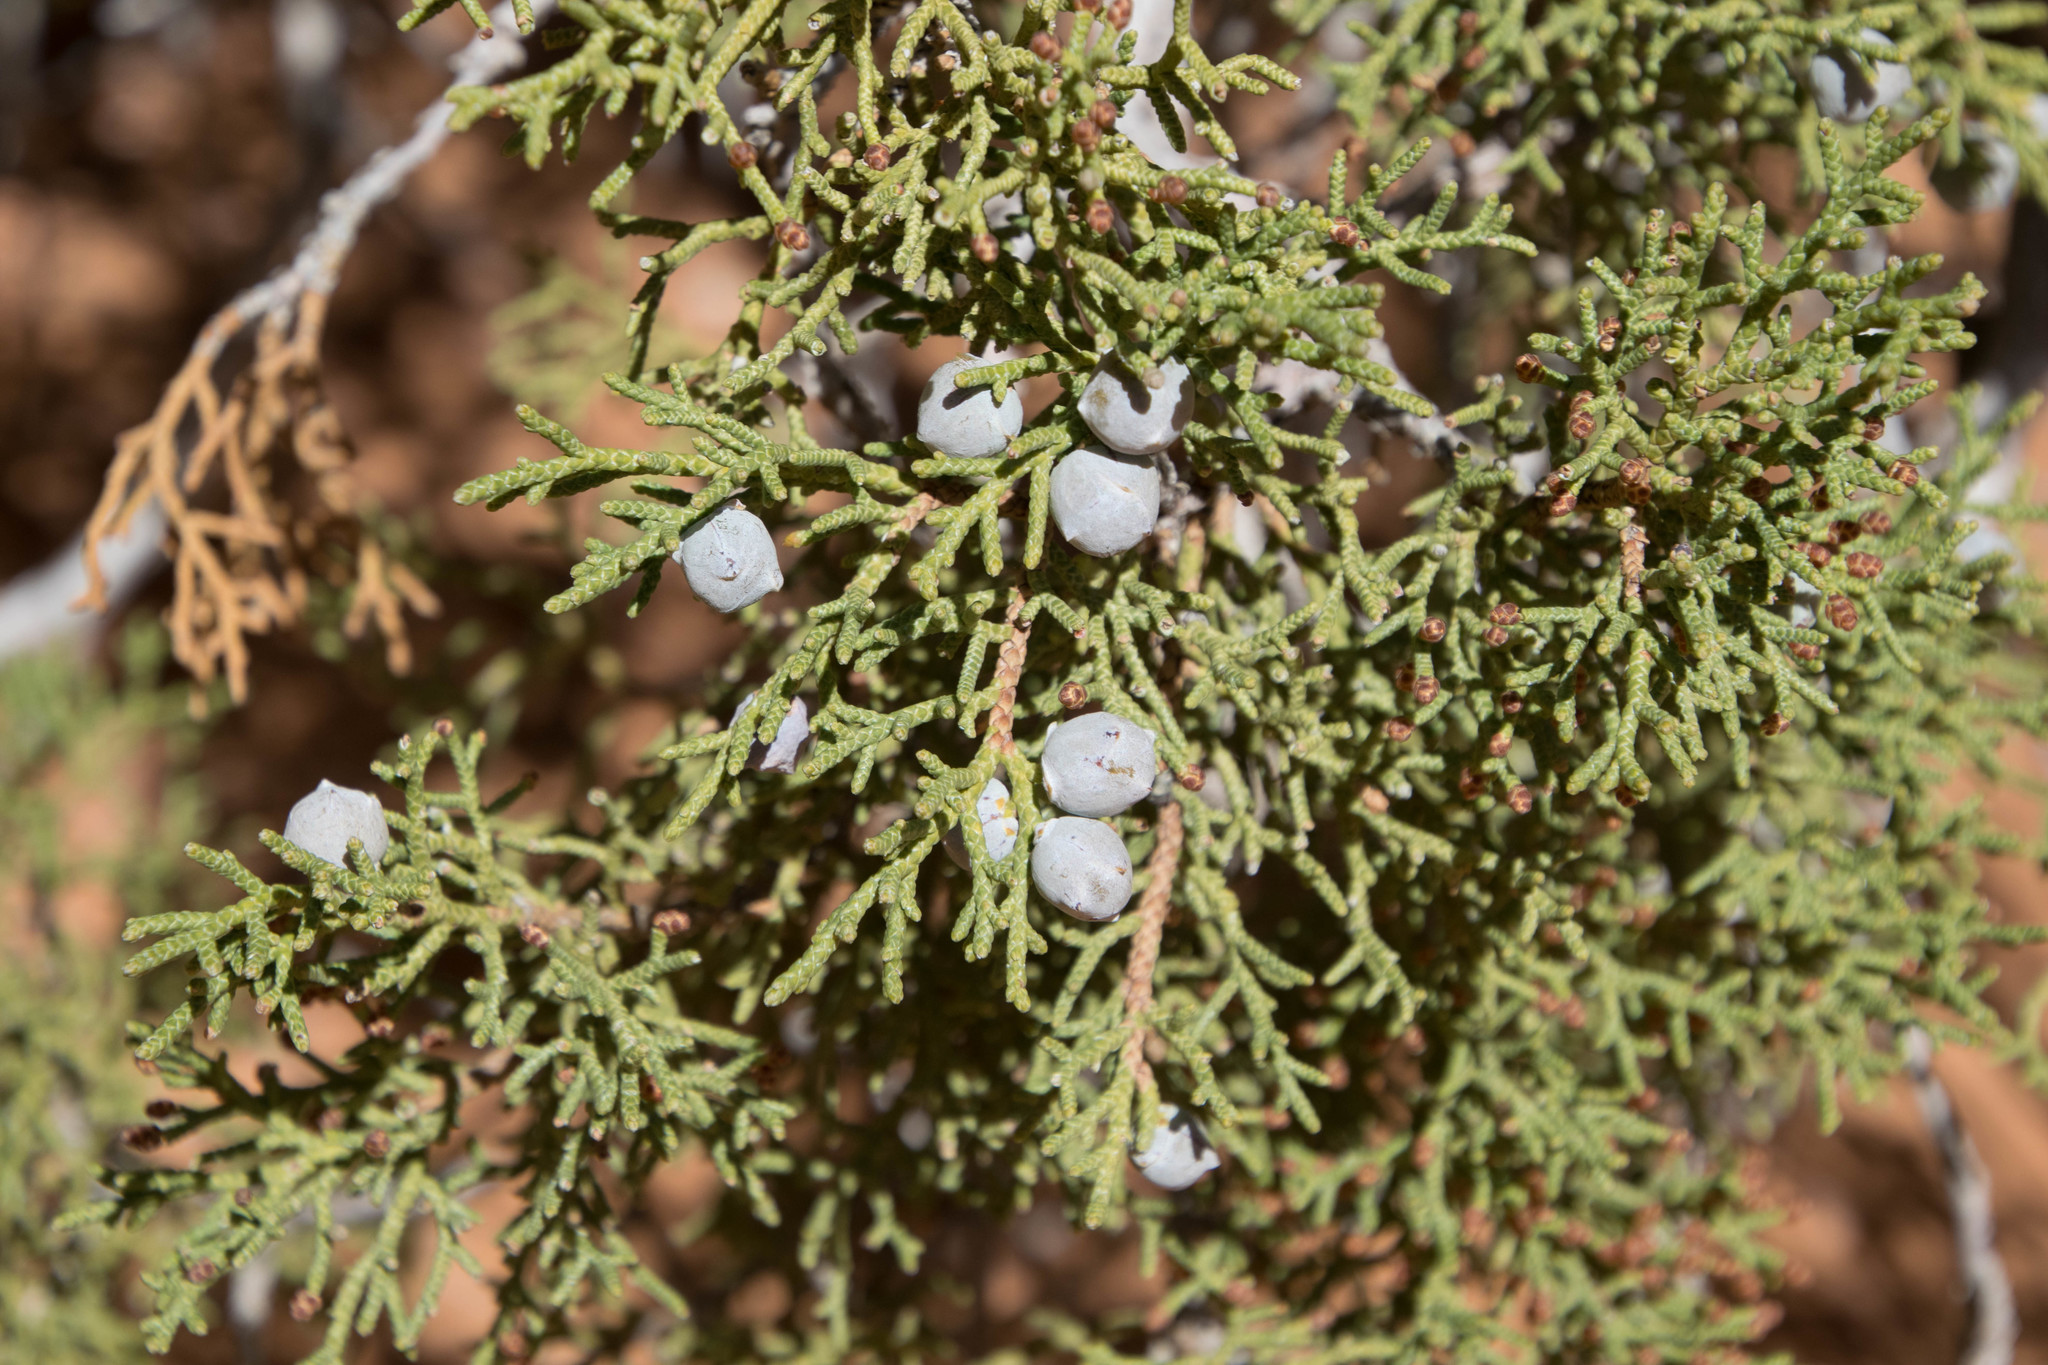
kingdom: Plantae
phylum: Tracheophyta
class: Pinopsida
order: Pinales
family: Cupressaceae
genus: Juniperus
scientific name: Juniperus osteosperma
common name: Utah juniper
